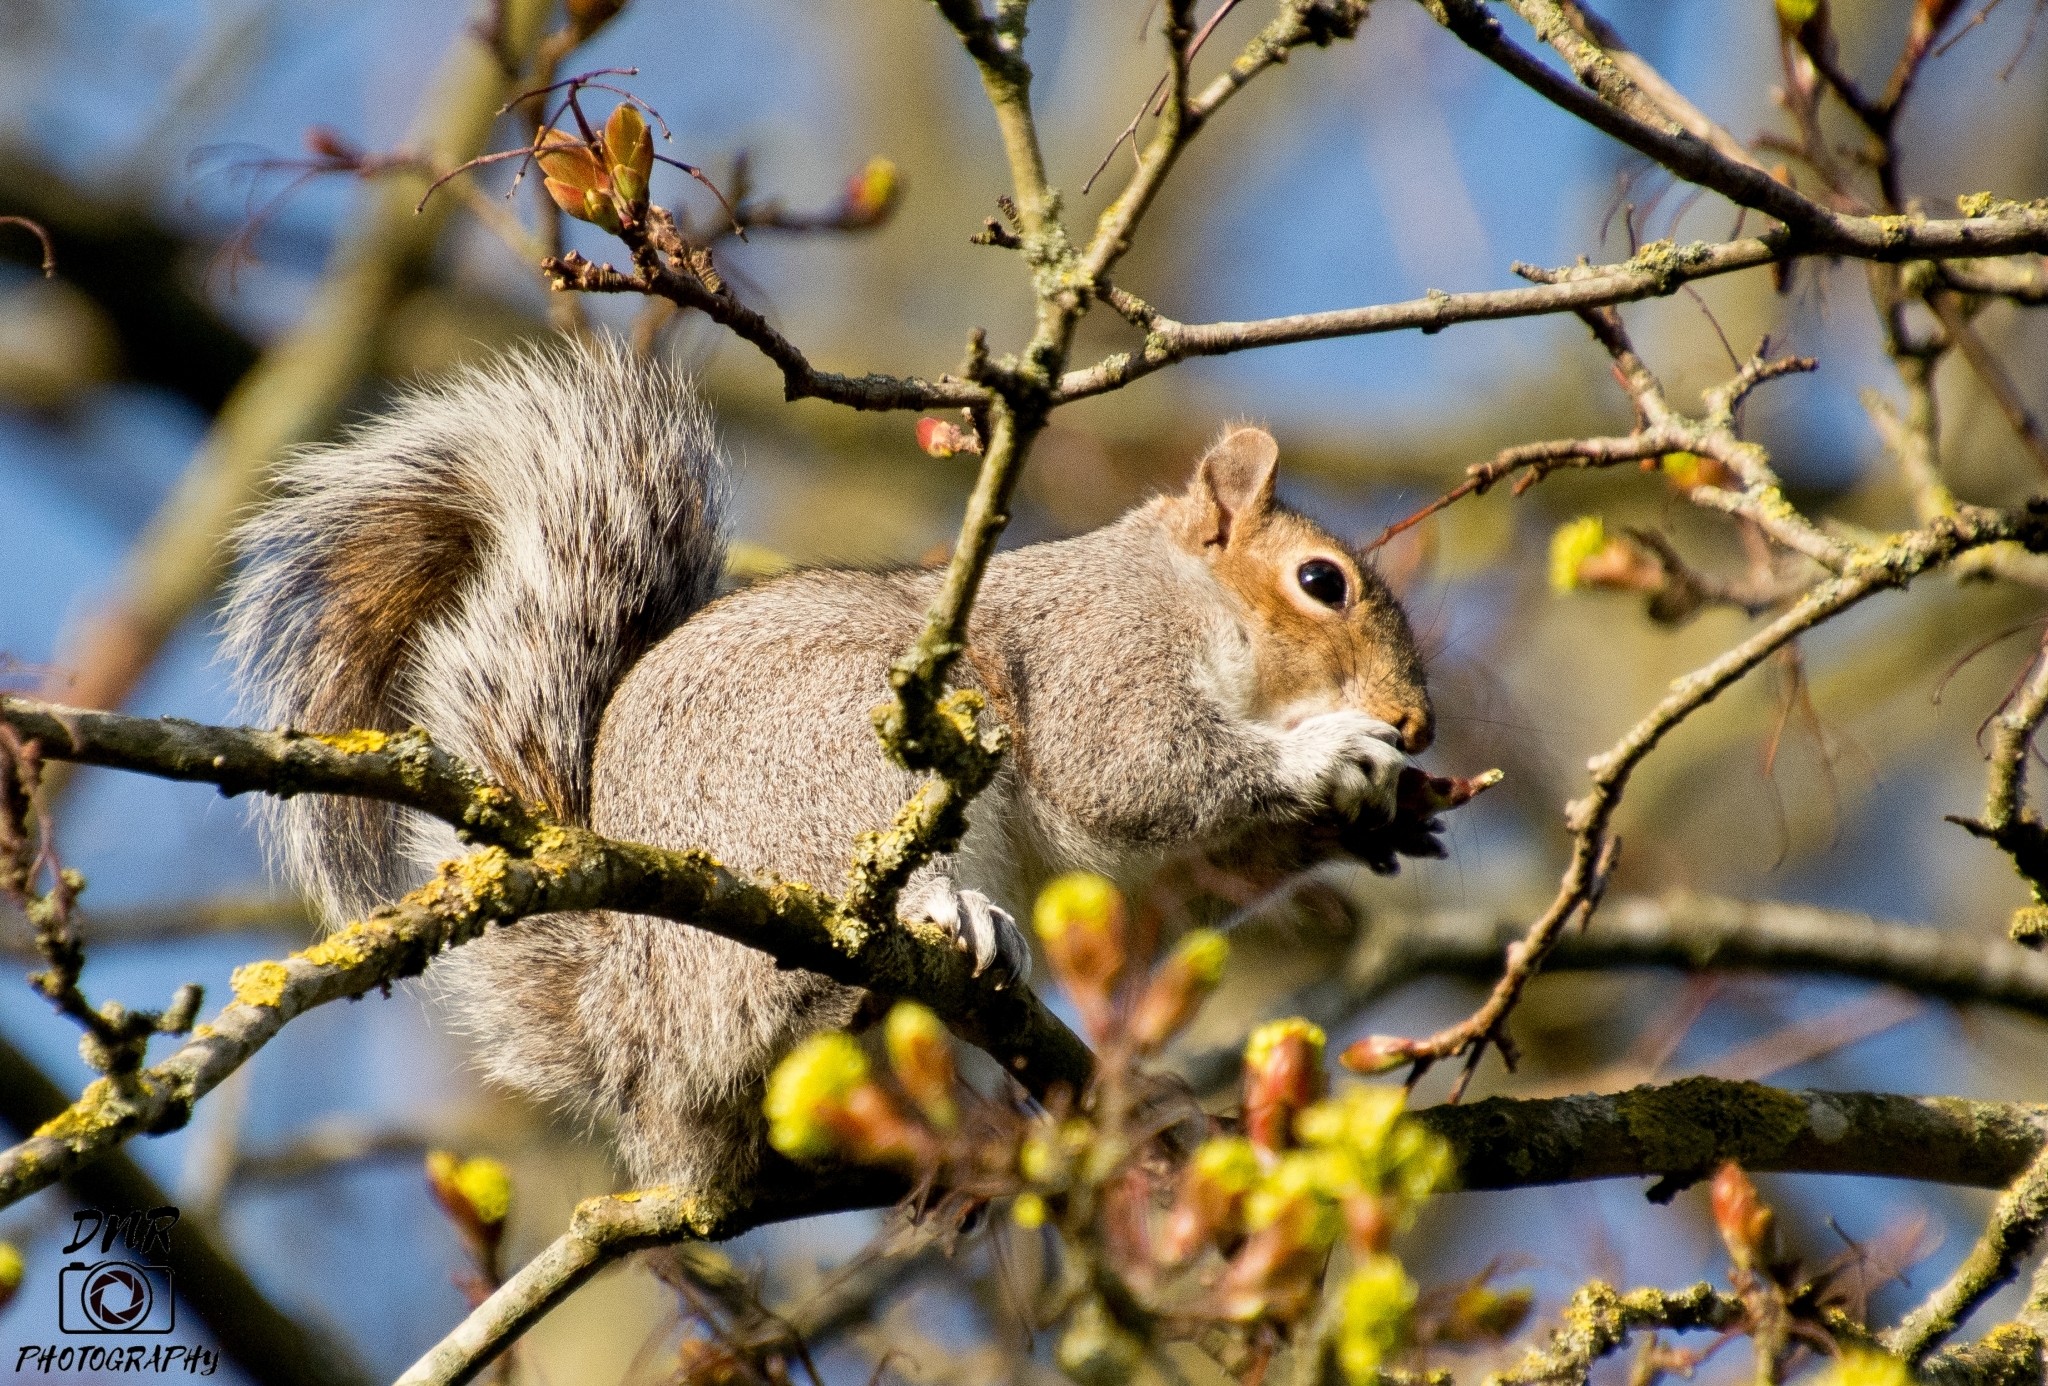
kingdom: Animalia
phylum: Chordata
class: Mammalia
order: Rodentia
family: Sciuridae
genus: Sciurus
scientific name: Sciurus carolinensis
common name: Eastern gray squirrel
